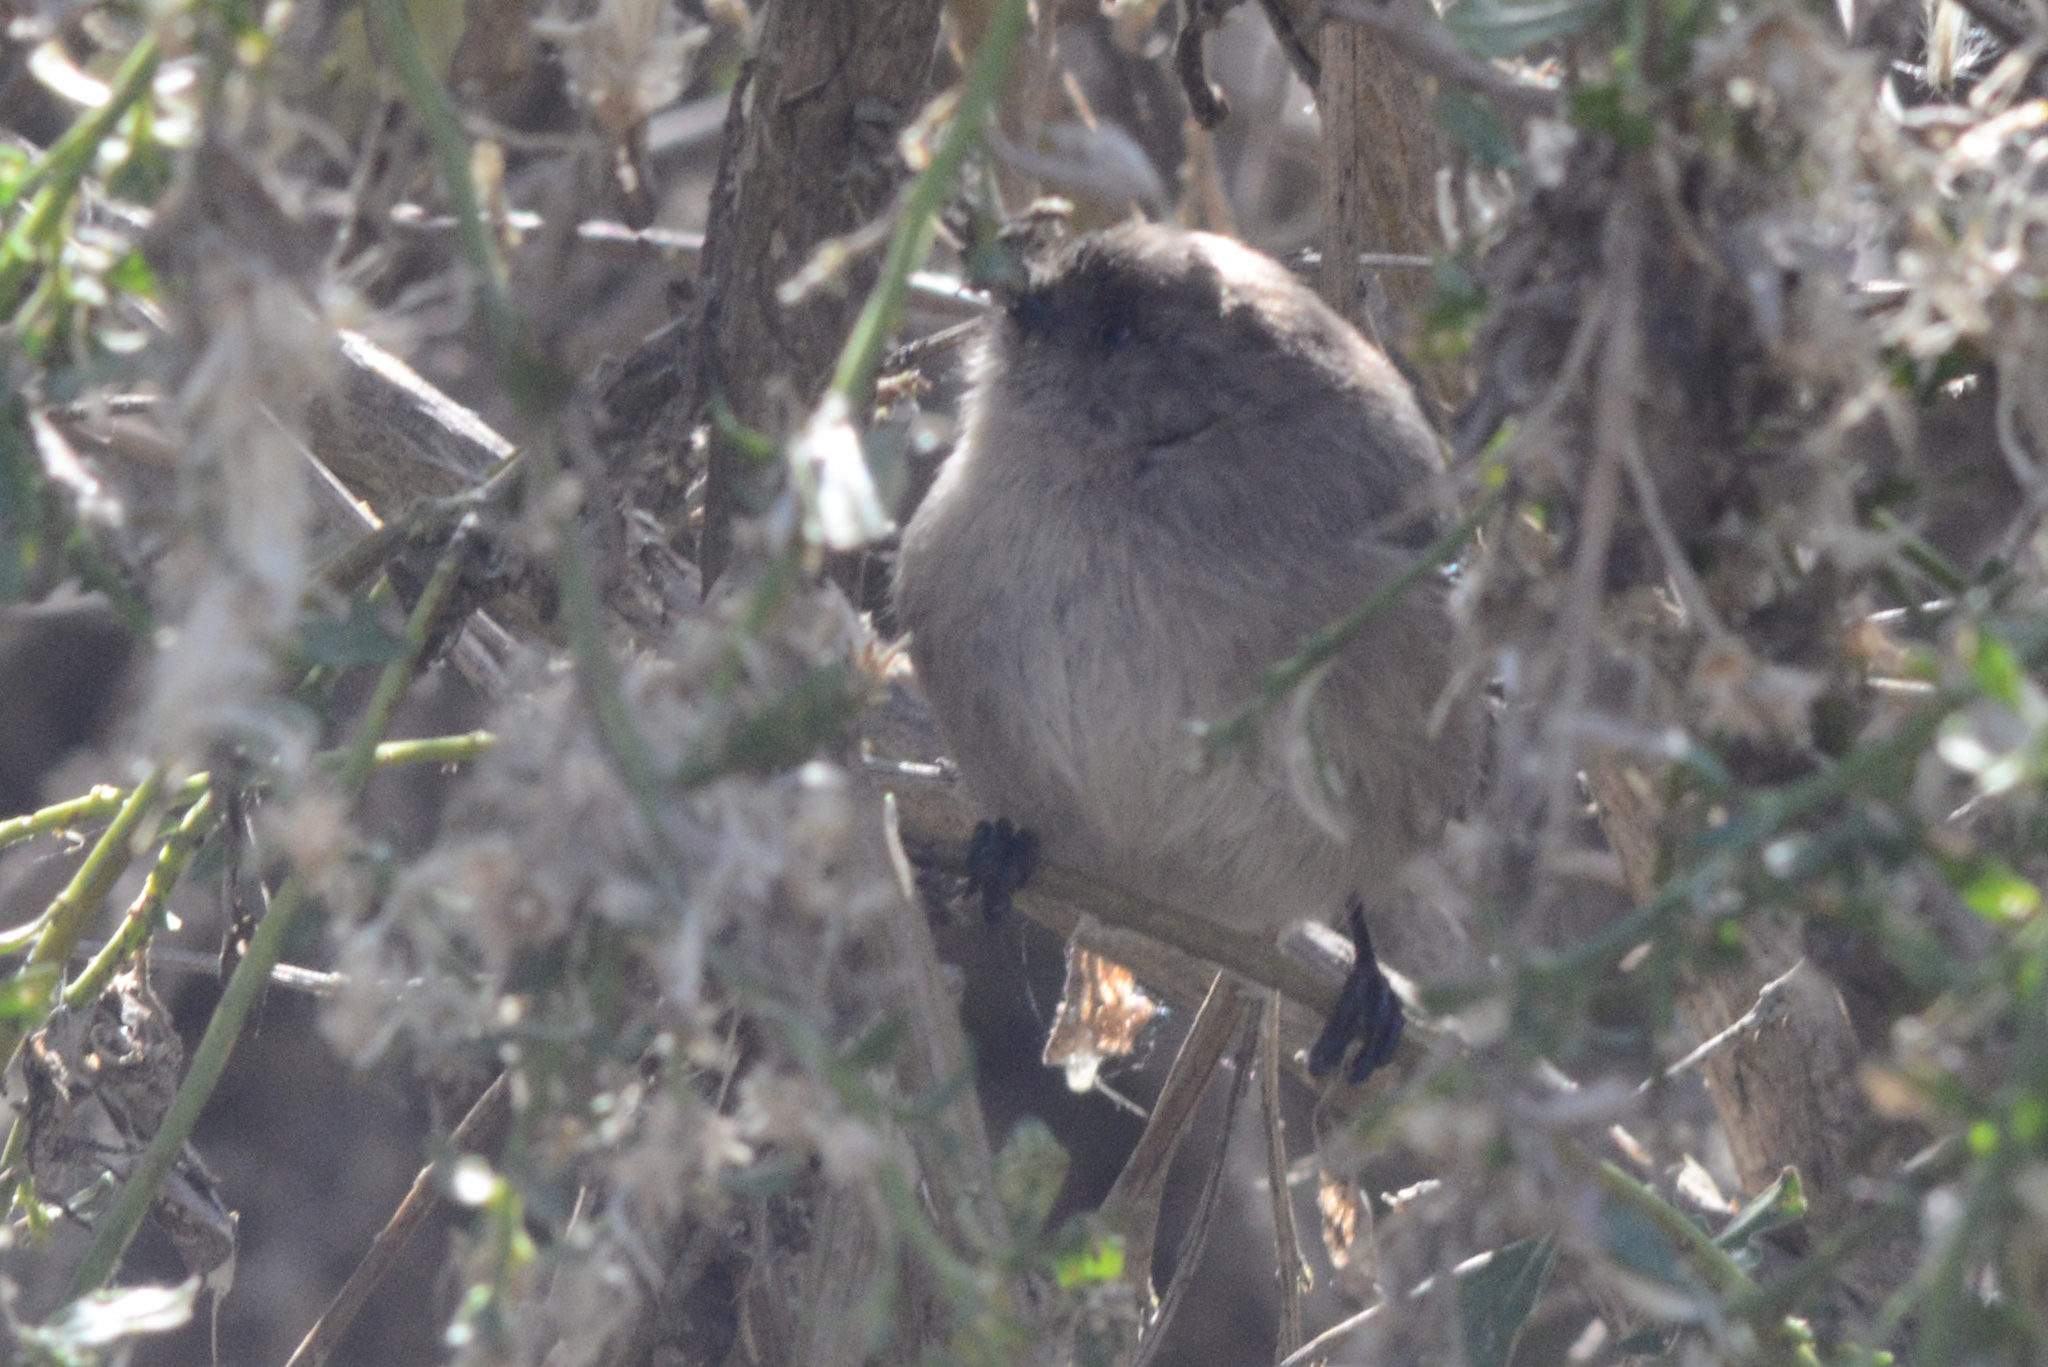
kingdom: Animalia
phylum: Chordata
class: Aves
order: Passeriformes
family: Aegithalidae
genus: Psaltriparus
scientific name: Psaltriparus minimus
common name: American bushtit
